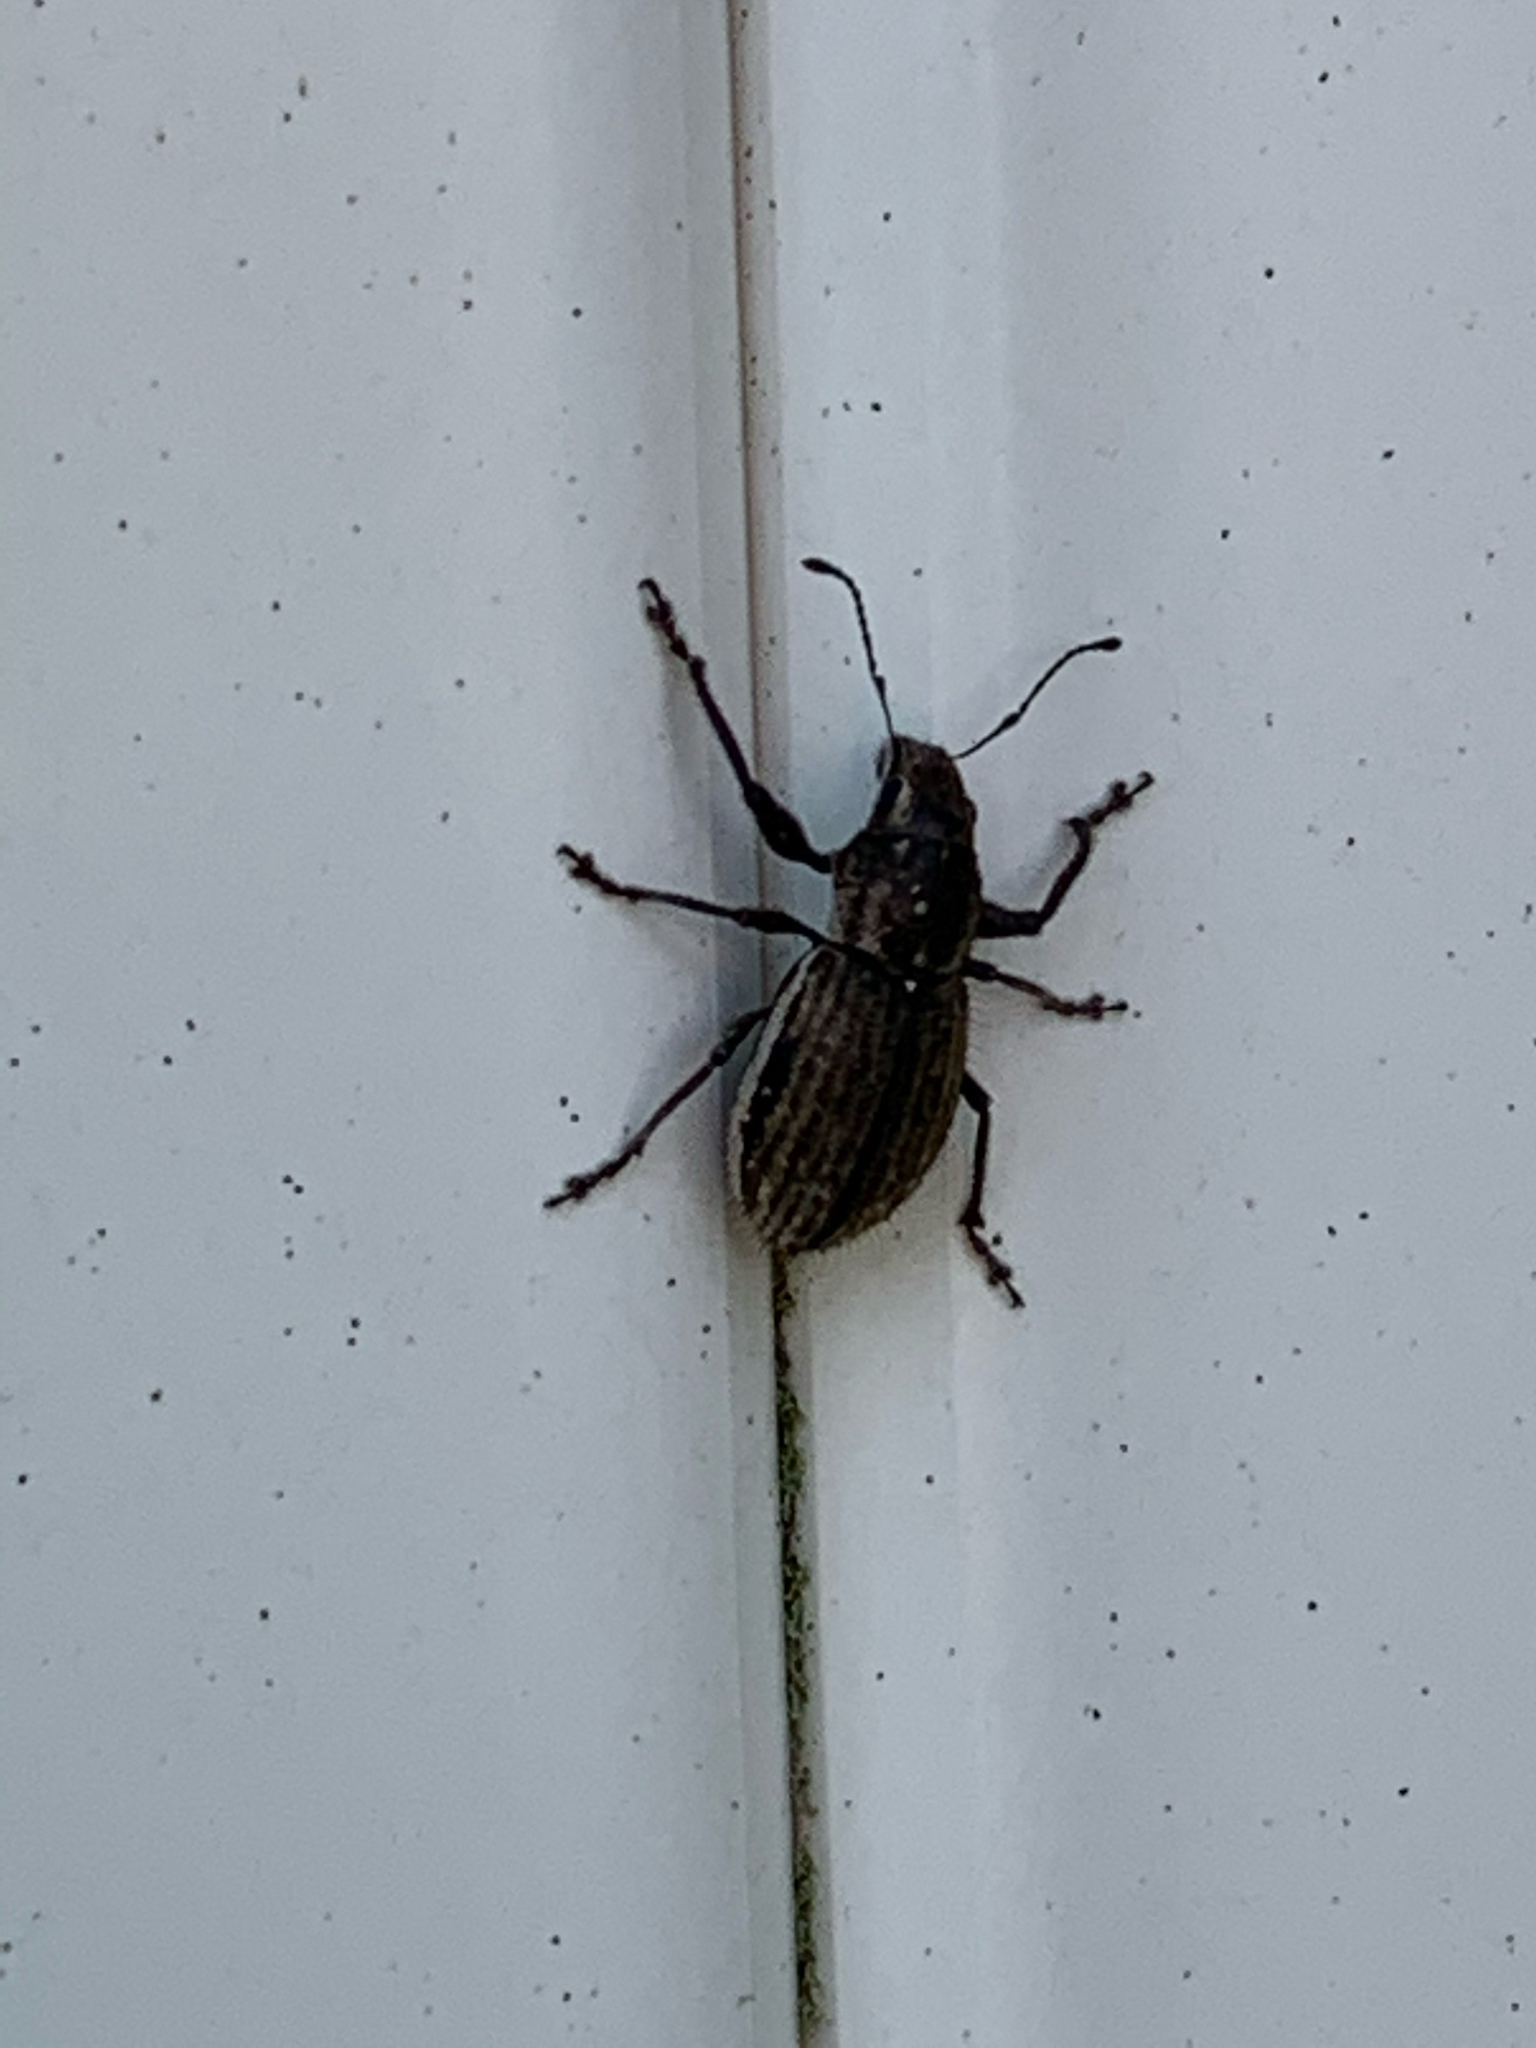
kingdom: Animalia
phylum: Arthropoda
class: Insecta
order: Coleoptera
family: Curculionidae
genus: Naupactus
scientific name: Naupactus leucoloma
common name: Whitefringed beetle
